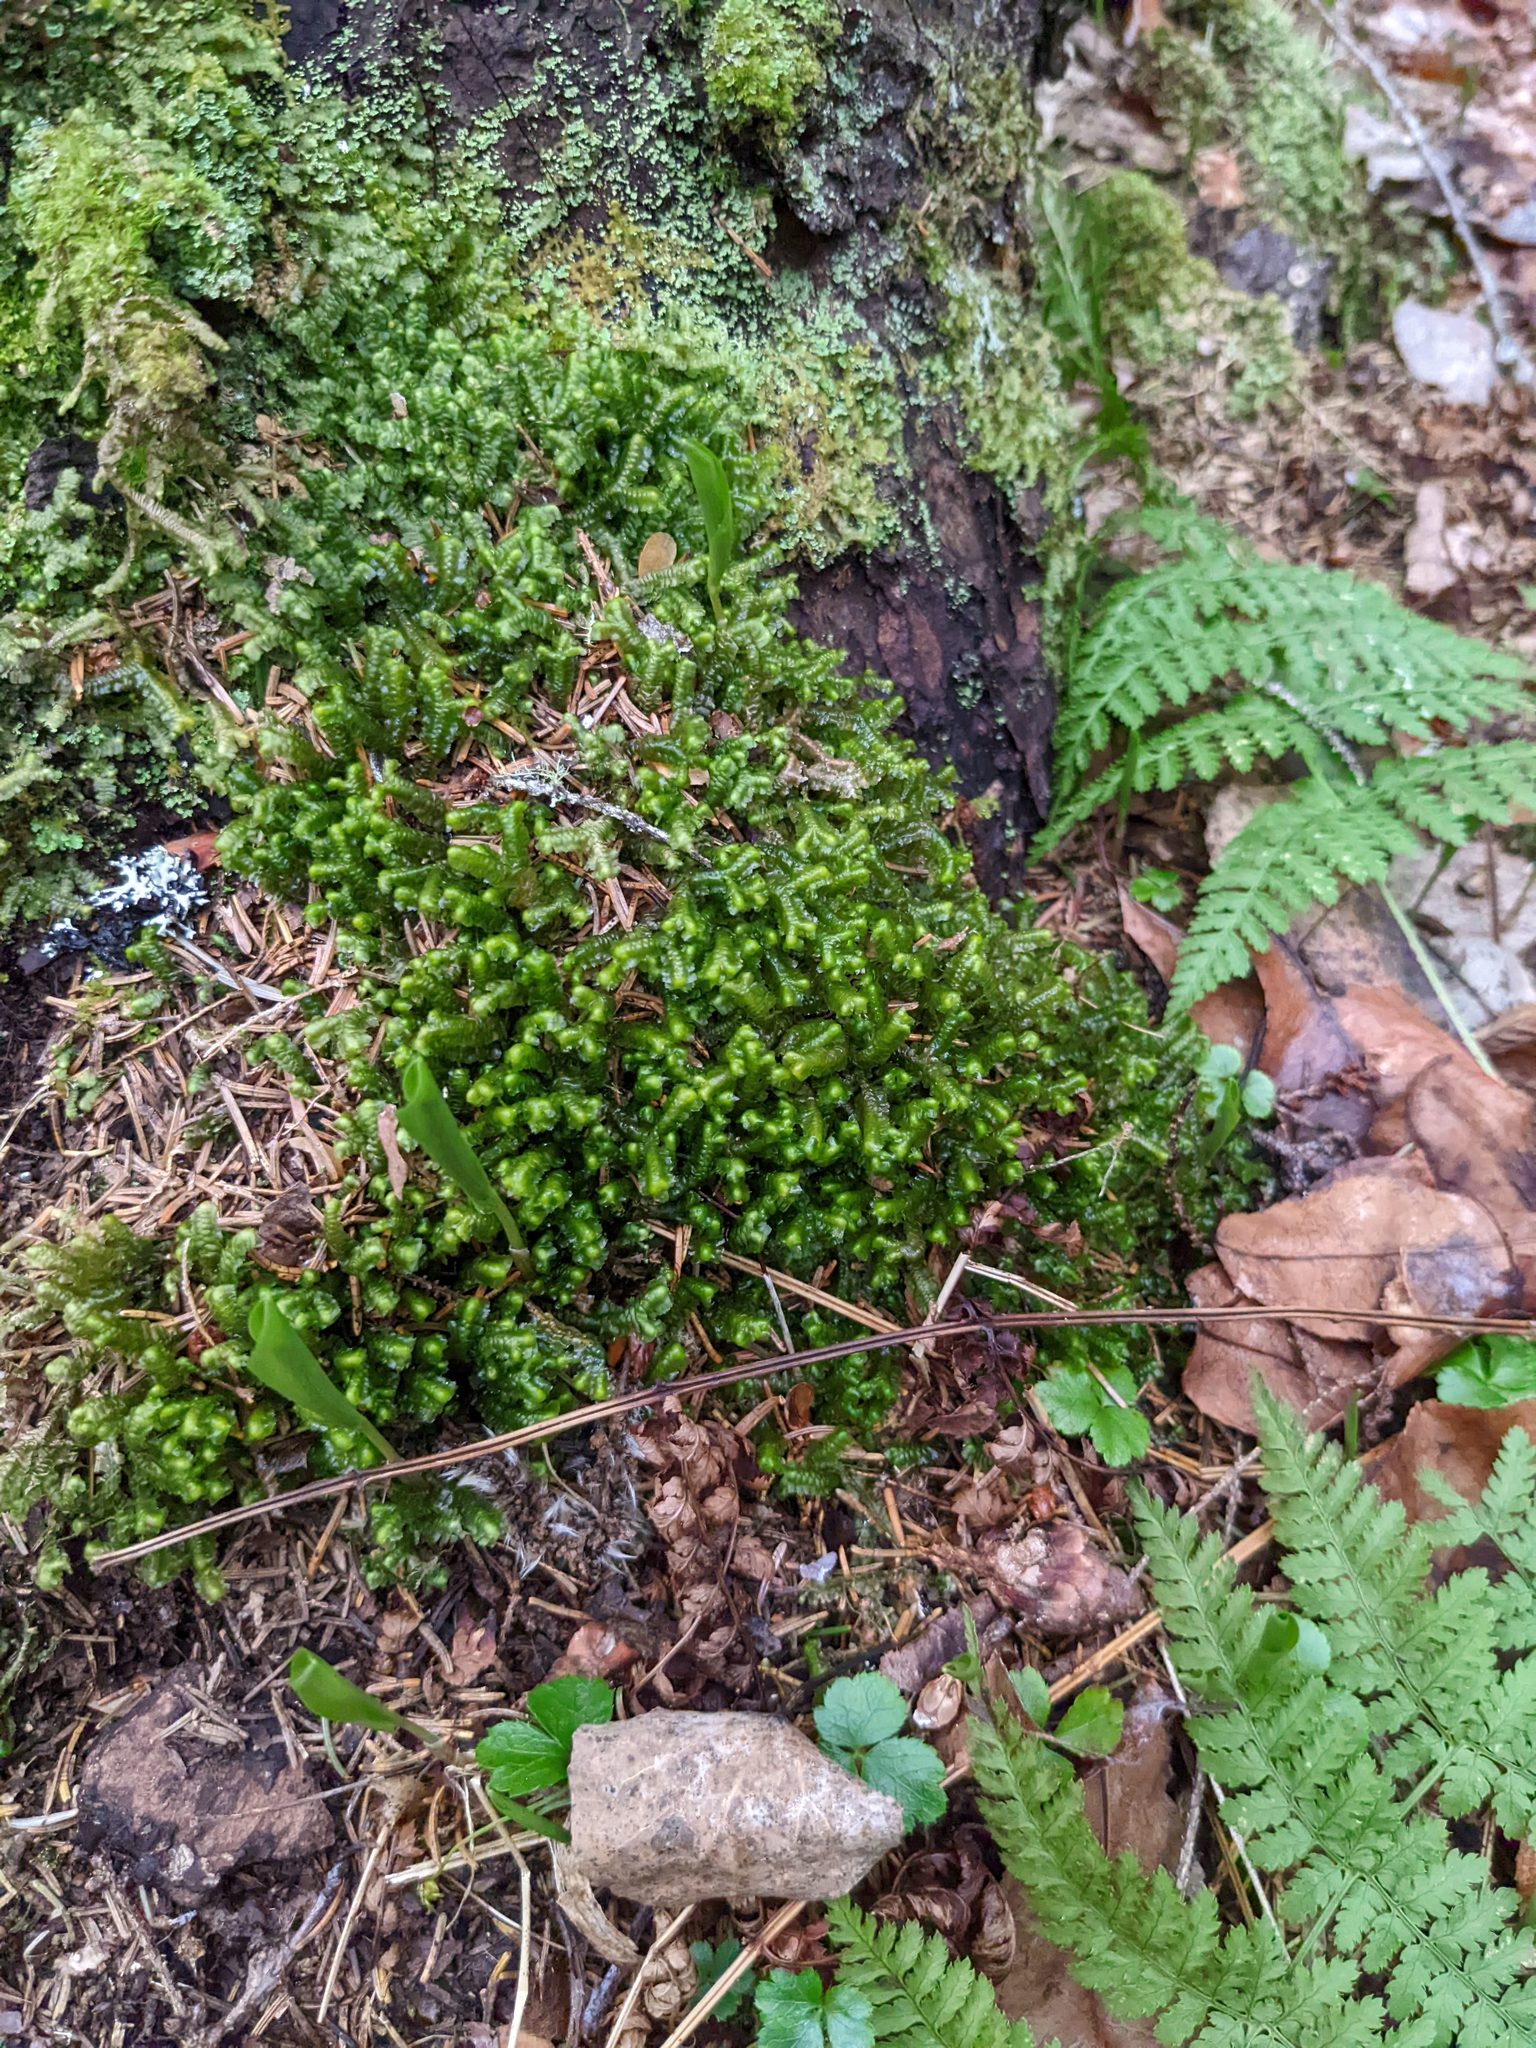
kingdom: Plantae
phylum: Marchantiophyta
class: Jungermanniopsida
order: Jungermanniales
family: Lepidoziaceae
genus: Bazzania
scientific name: Bazzania trilobata
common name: Three-lobed whipwort
